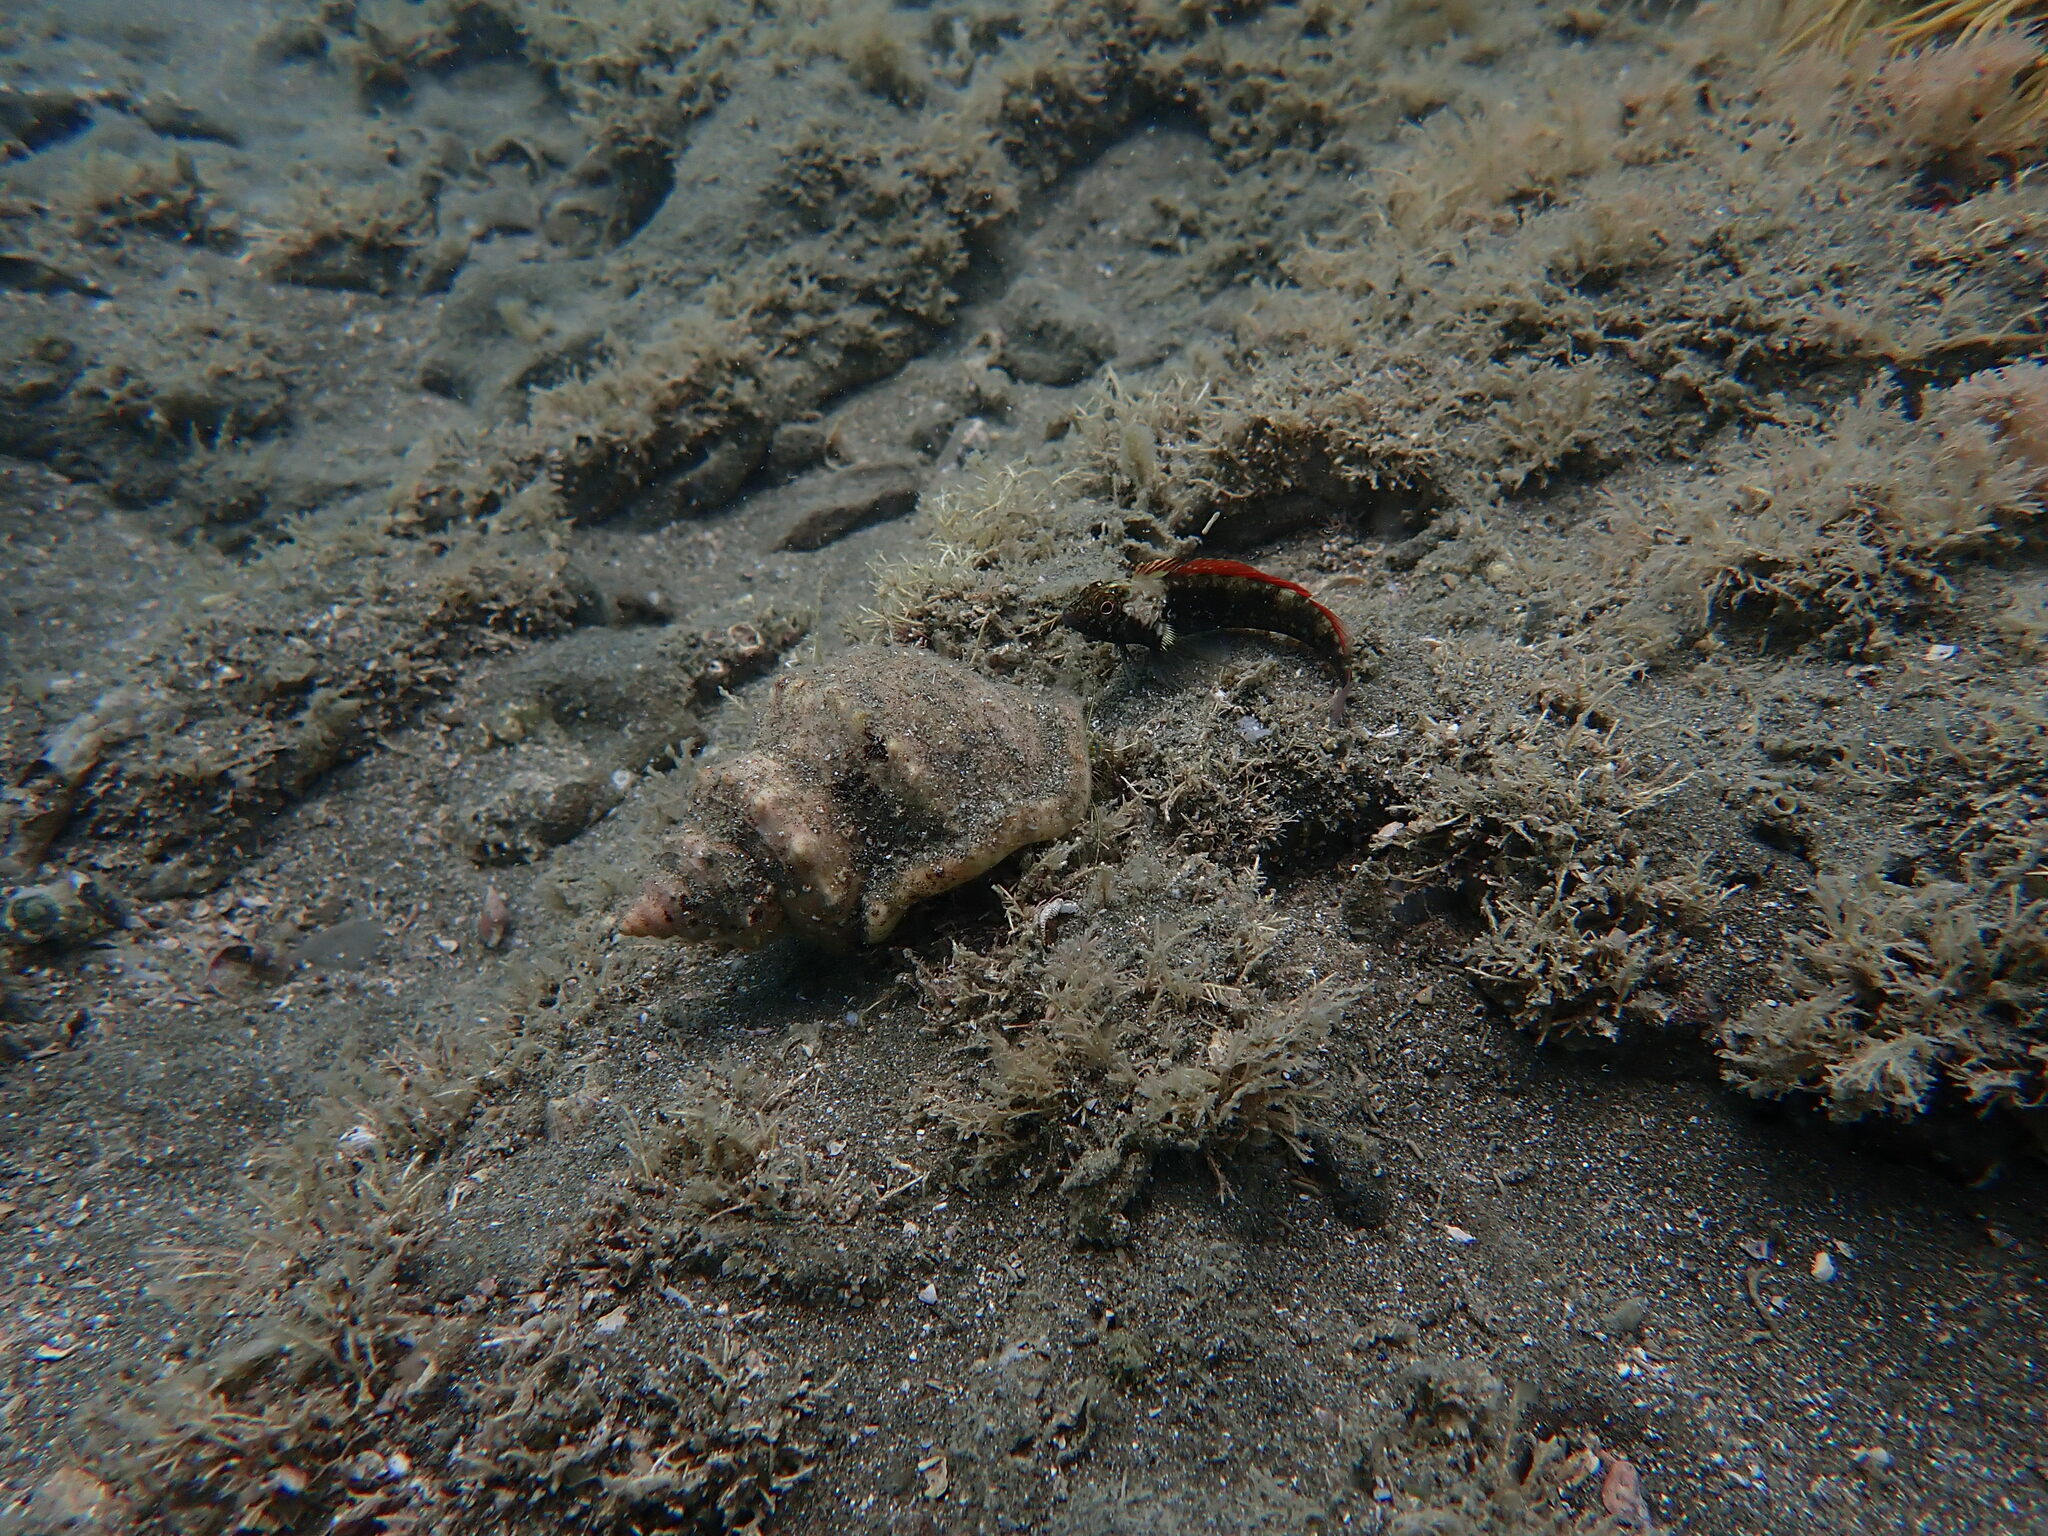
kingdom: Animalia
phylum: Chordata
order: Perciformes
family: Tripterygiidae
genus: Forsterygion
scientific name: Forsterygion lapillum
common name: Common triplefin
